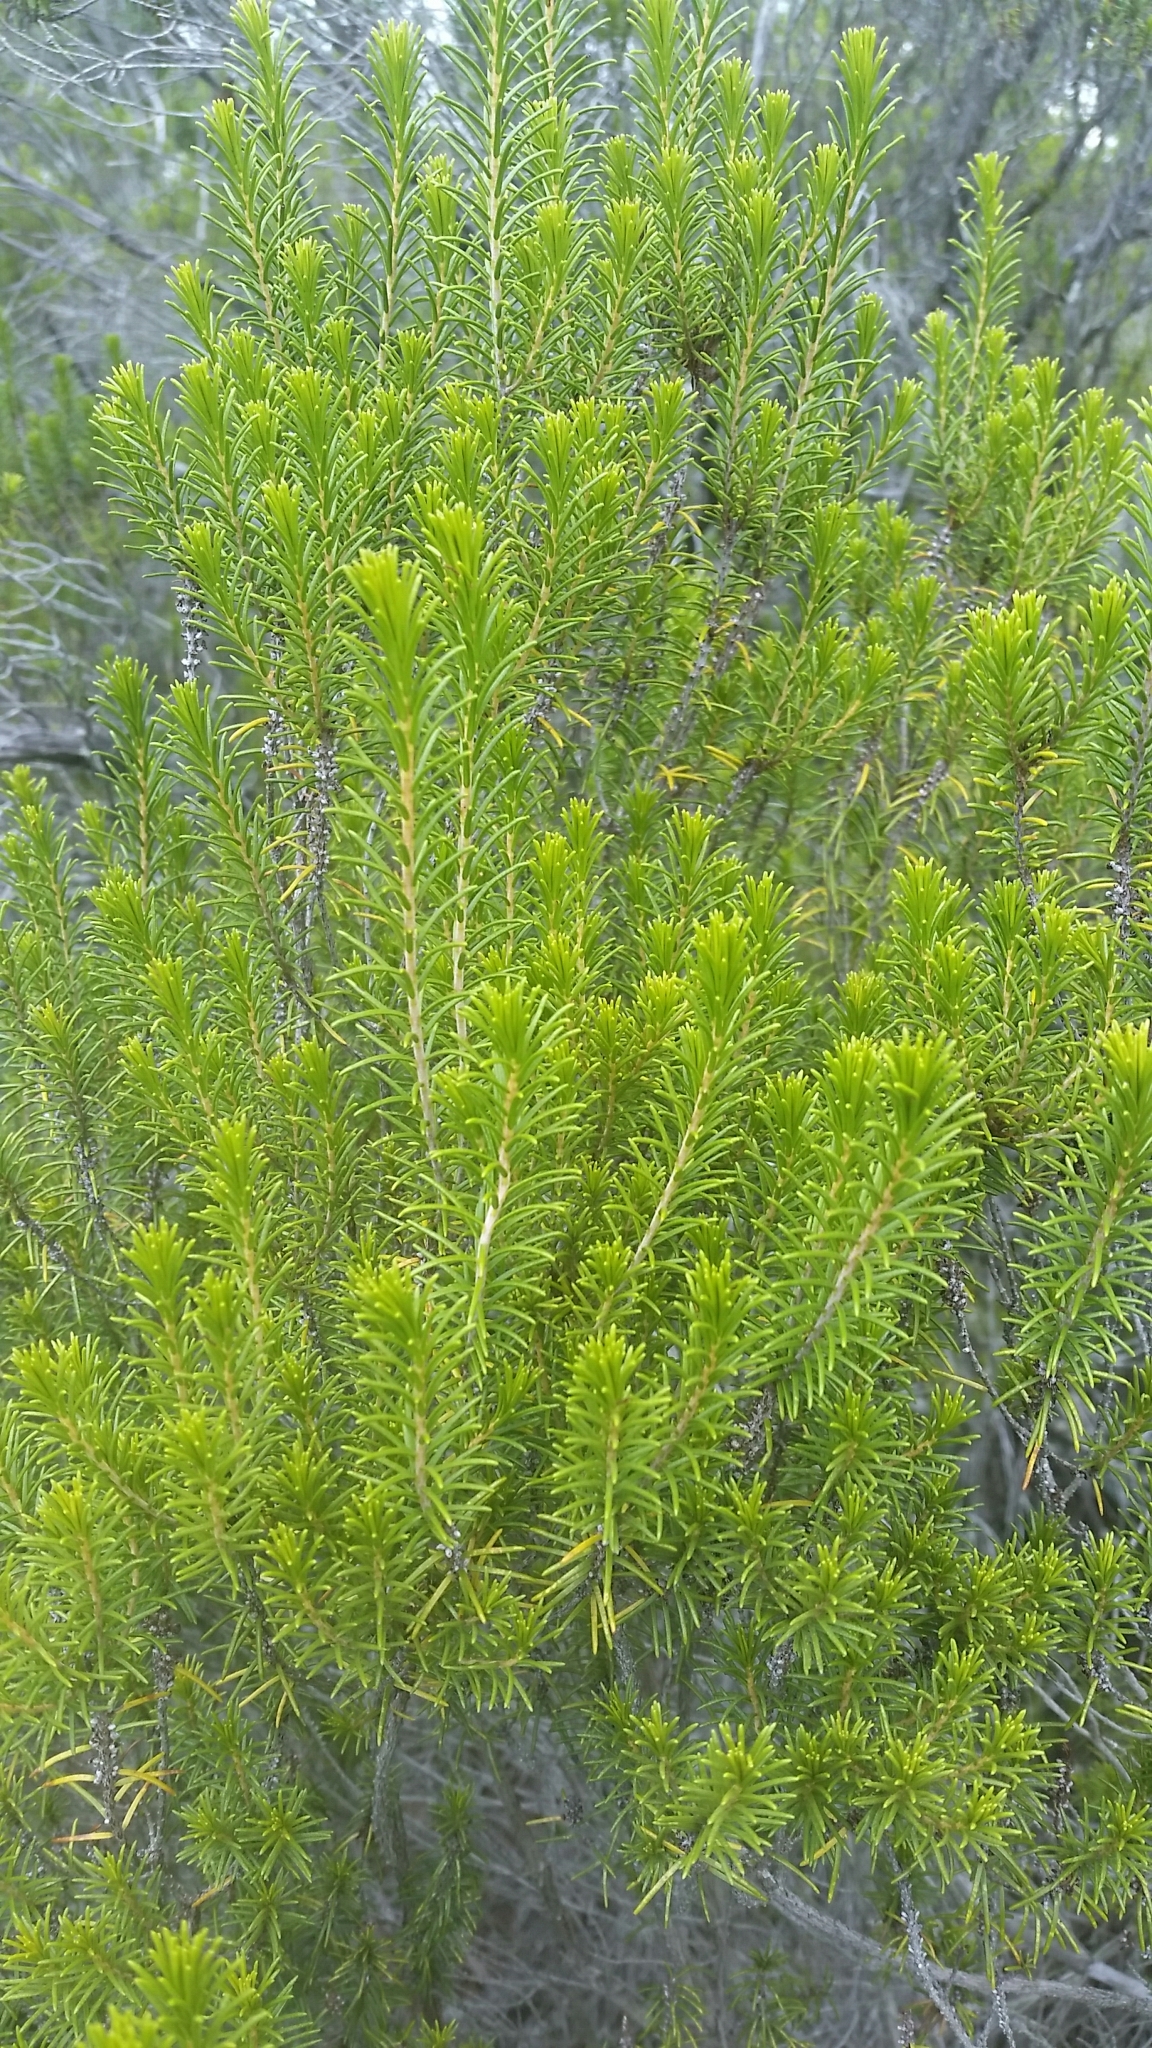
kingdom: Plantae
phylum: Tracheophyta
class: Magnoliopsida
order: Ericales
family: Ericaceae
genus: Ceratiola
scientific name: Ceratiola ericoides
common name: Sandhill-rosemary
